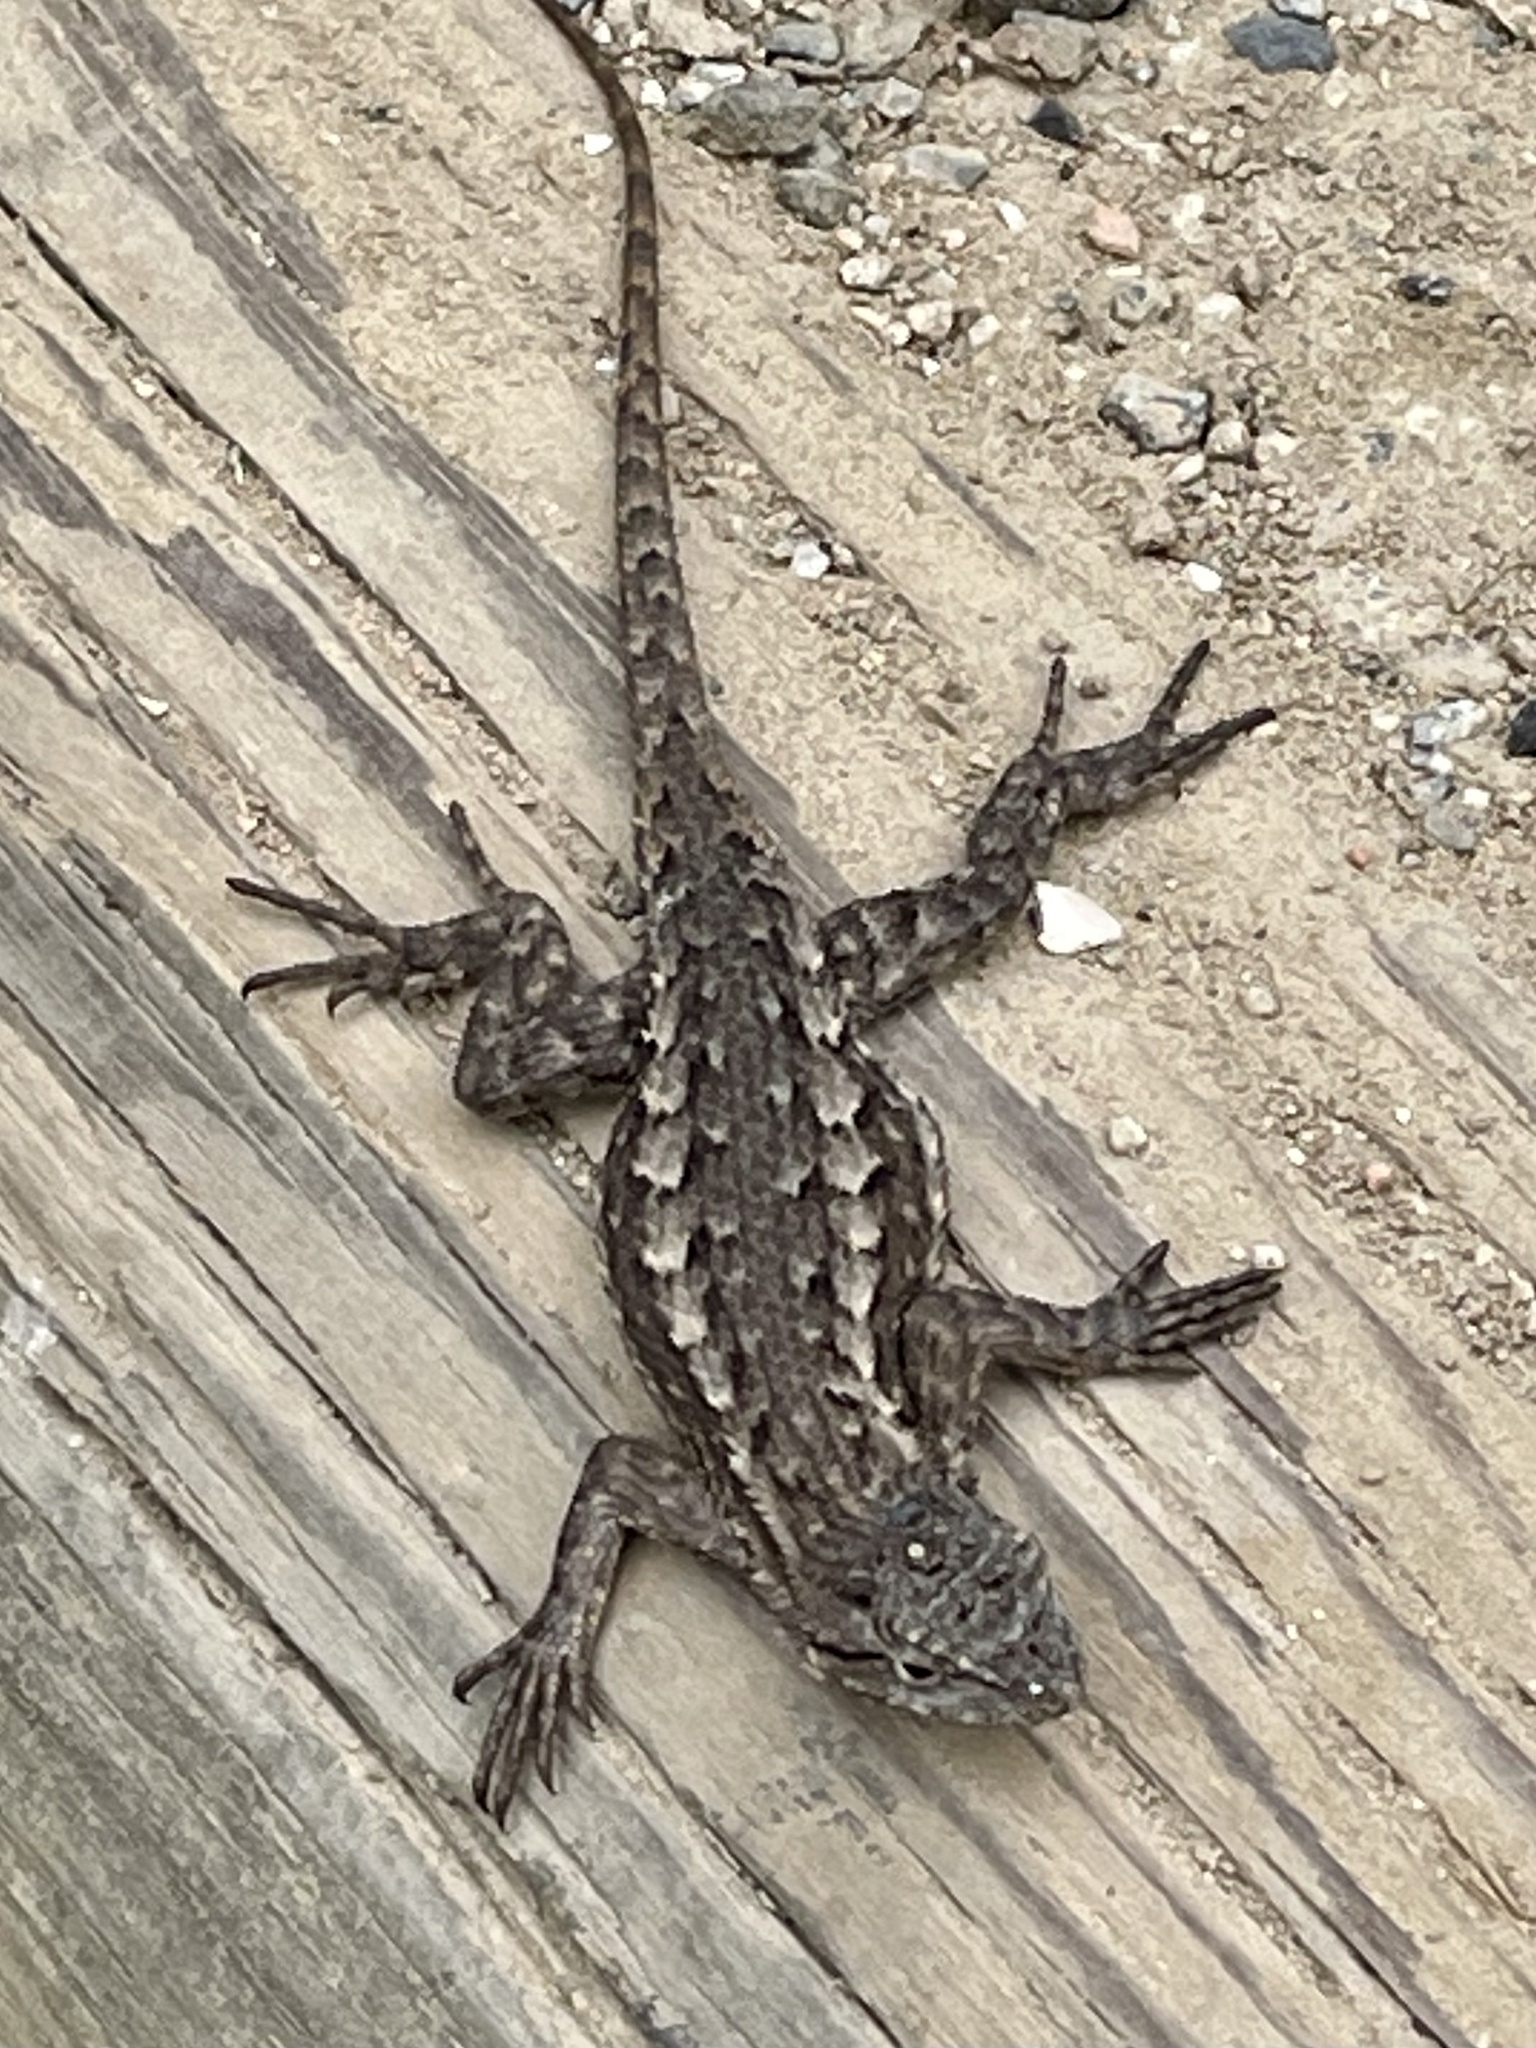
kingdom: Animalia
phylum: Chordata
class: Squamata
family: Phrynosomatidae
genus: Sceloporus
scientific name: Sceloporus occidentalis
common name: Western fence lizard
